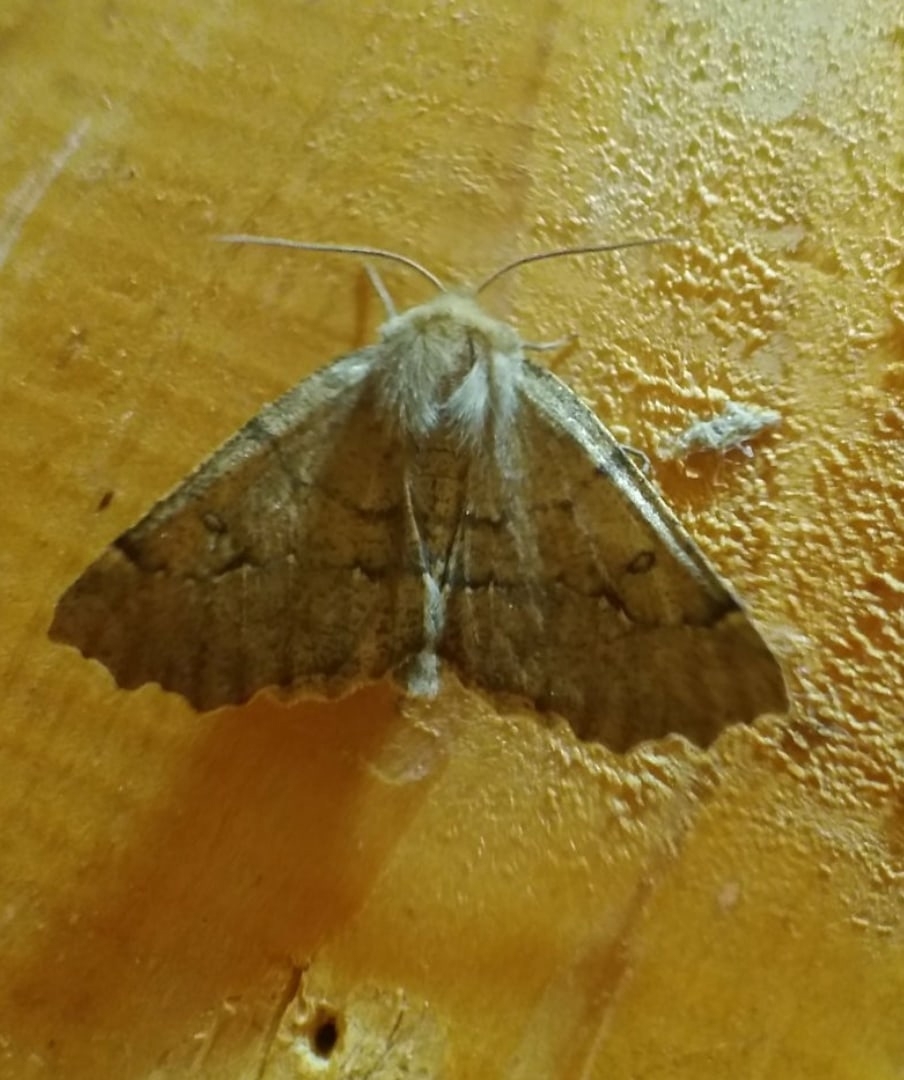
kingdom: Animalia
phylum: Arthropoda
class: Insecta
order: Lepidoptera
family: Geometridae
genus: Odontopera
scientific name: Odontopera bidentata
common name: Scalloped hazel
